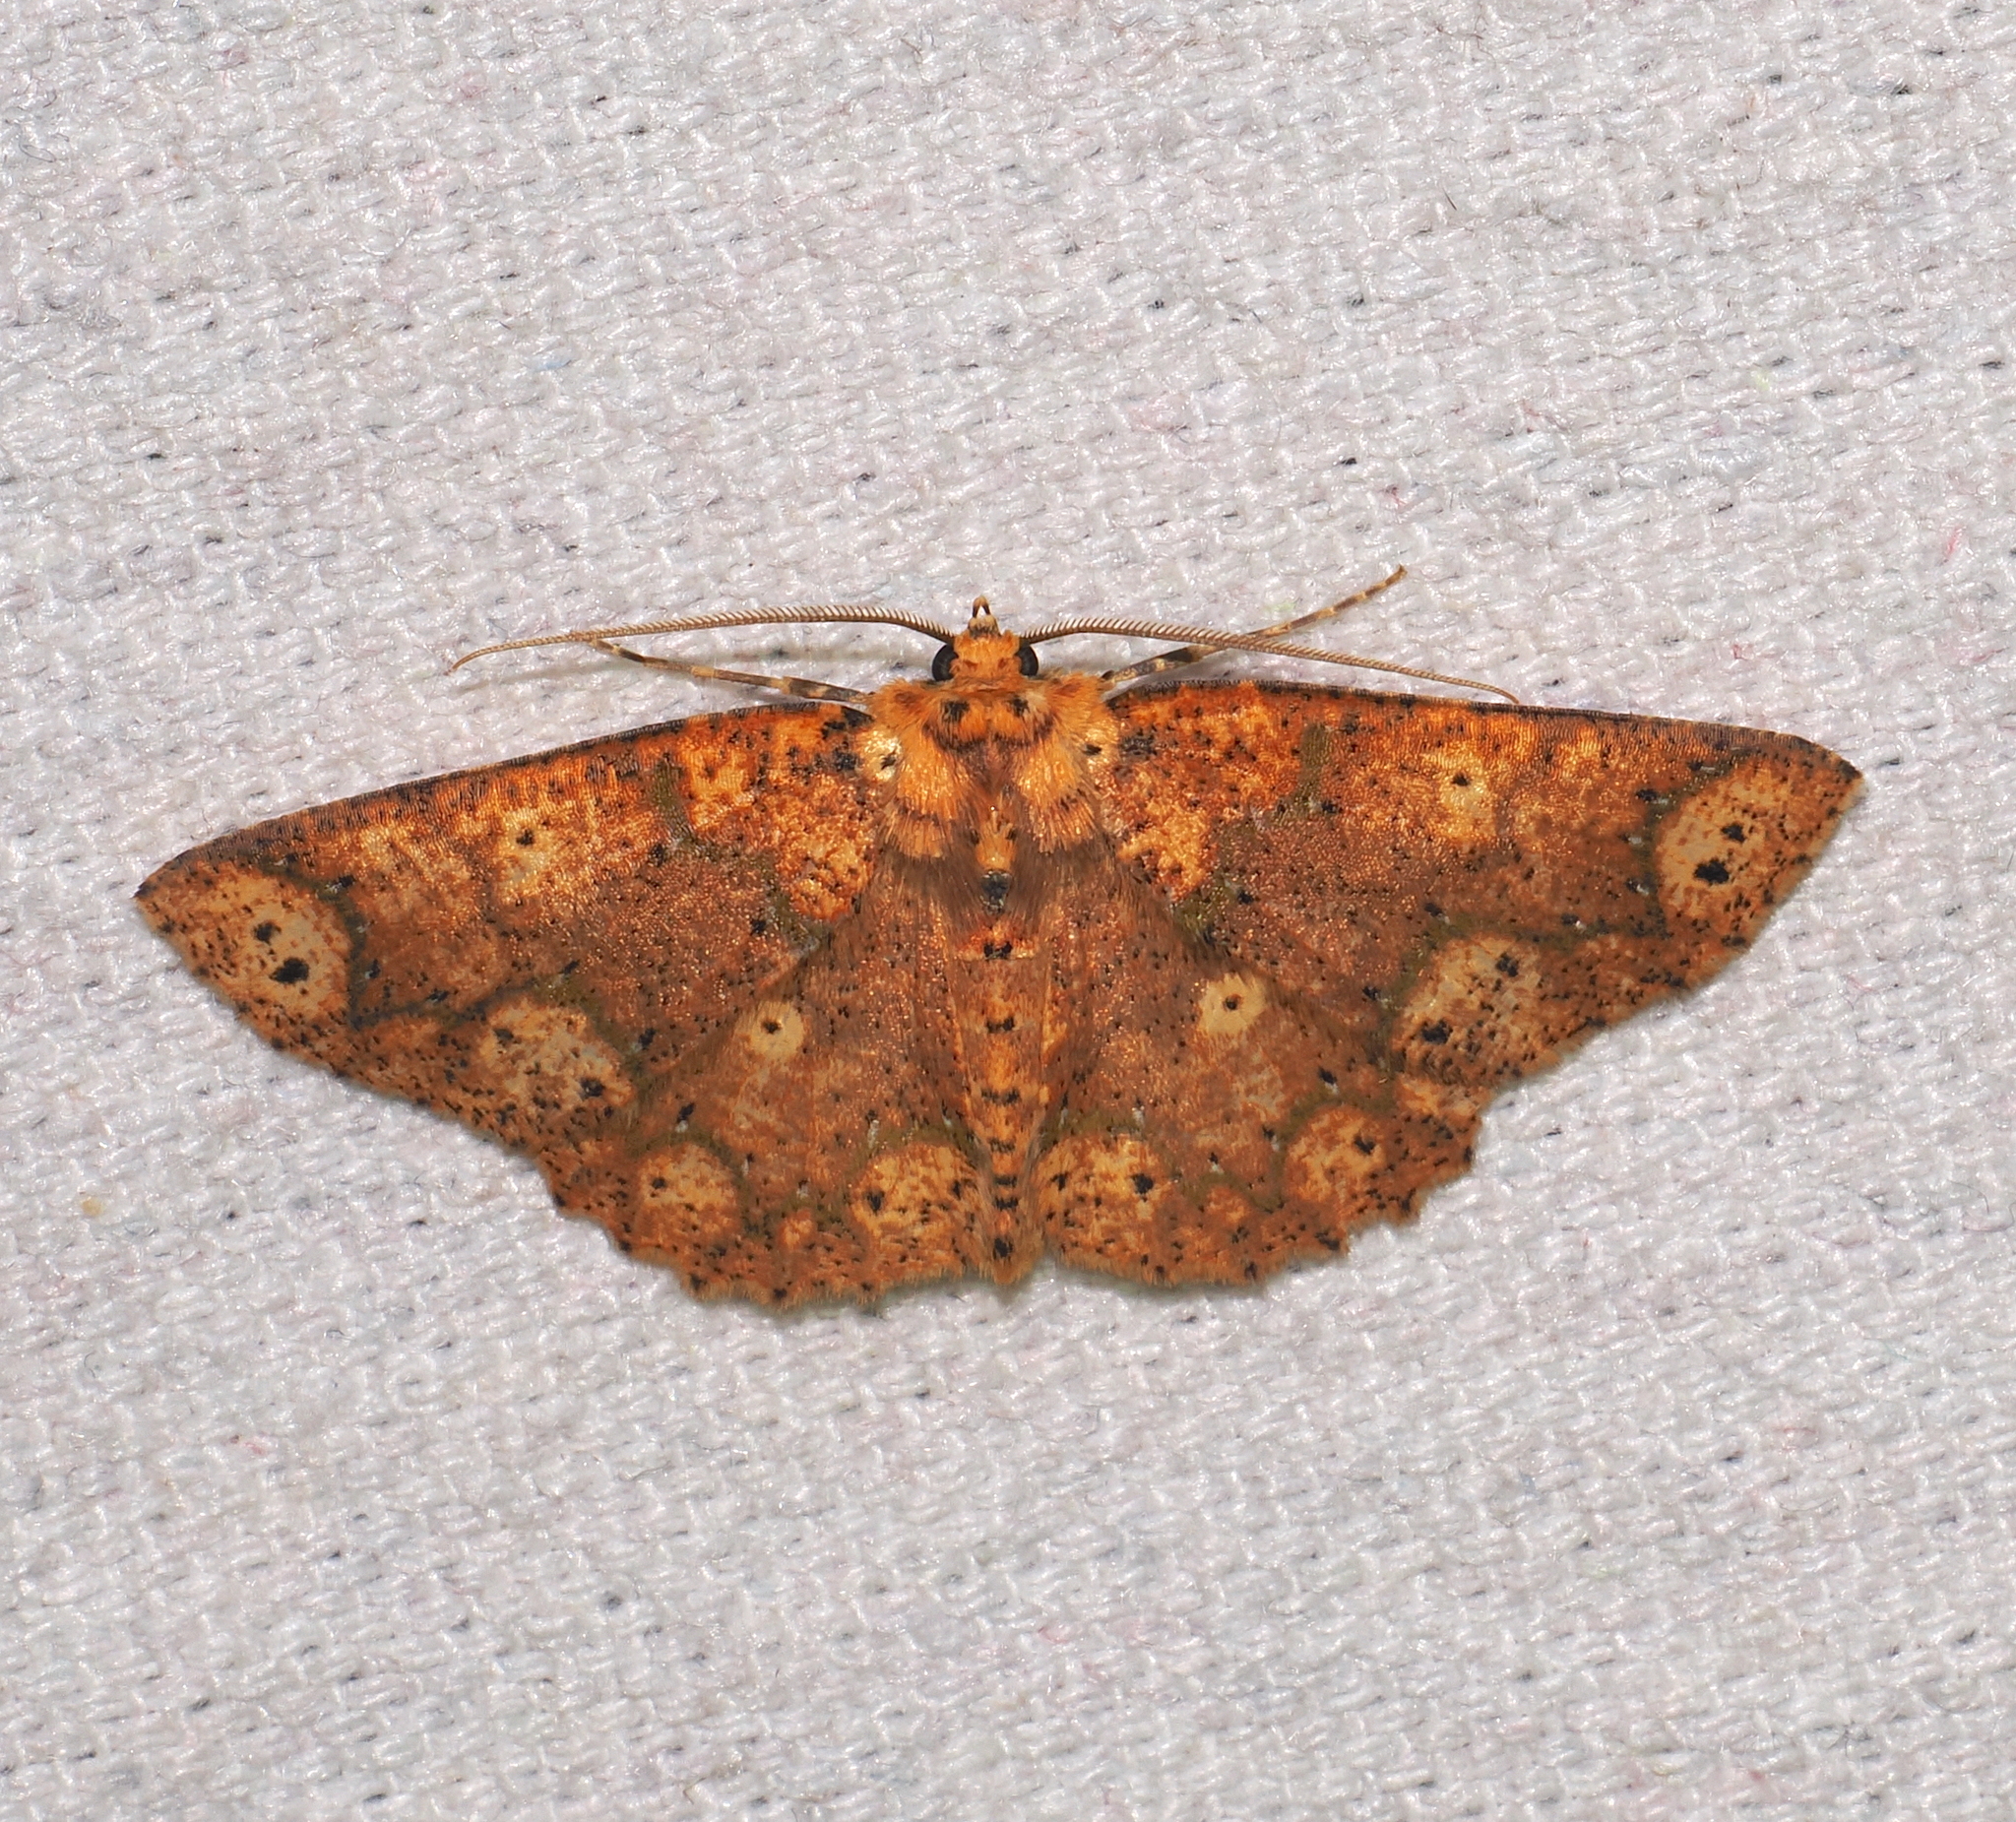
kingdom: Animalia
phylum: Arthropoda
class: Insecta
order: Lepidoptera
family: Geometridae
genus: Isochromodes
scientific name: Isochromodes polvoreata
